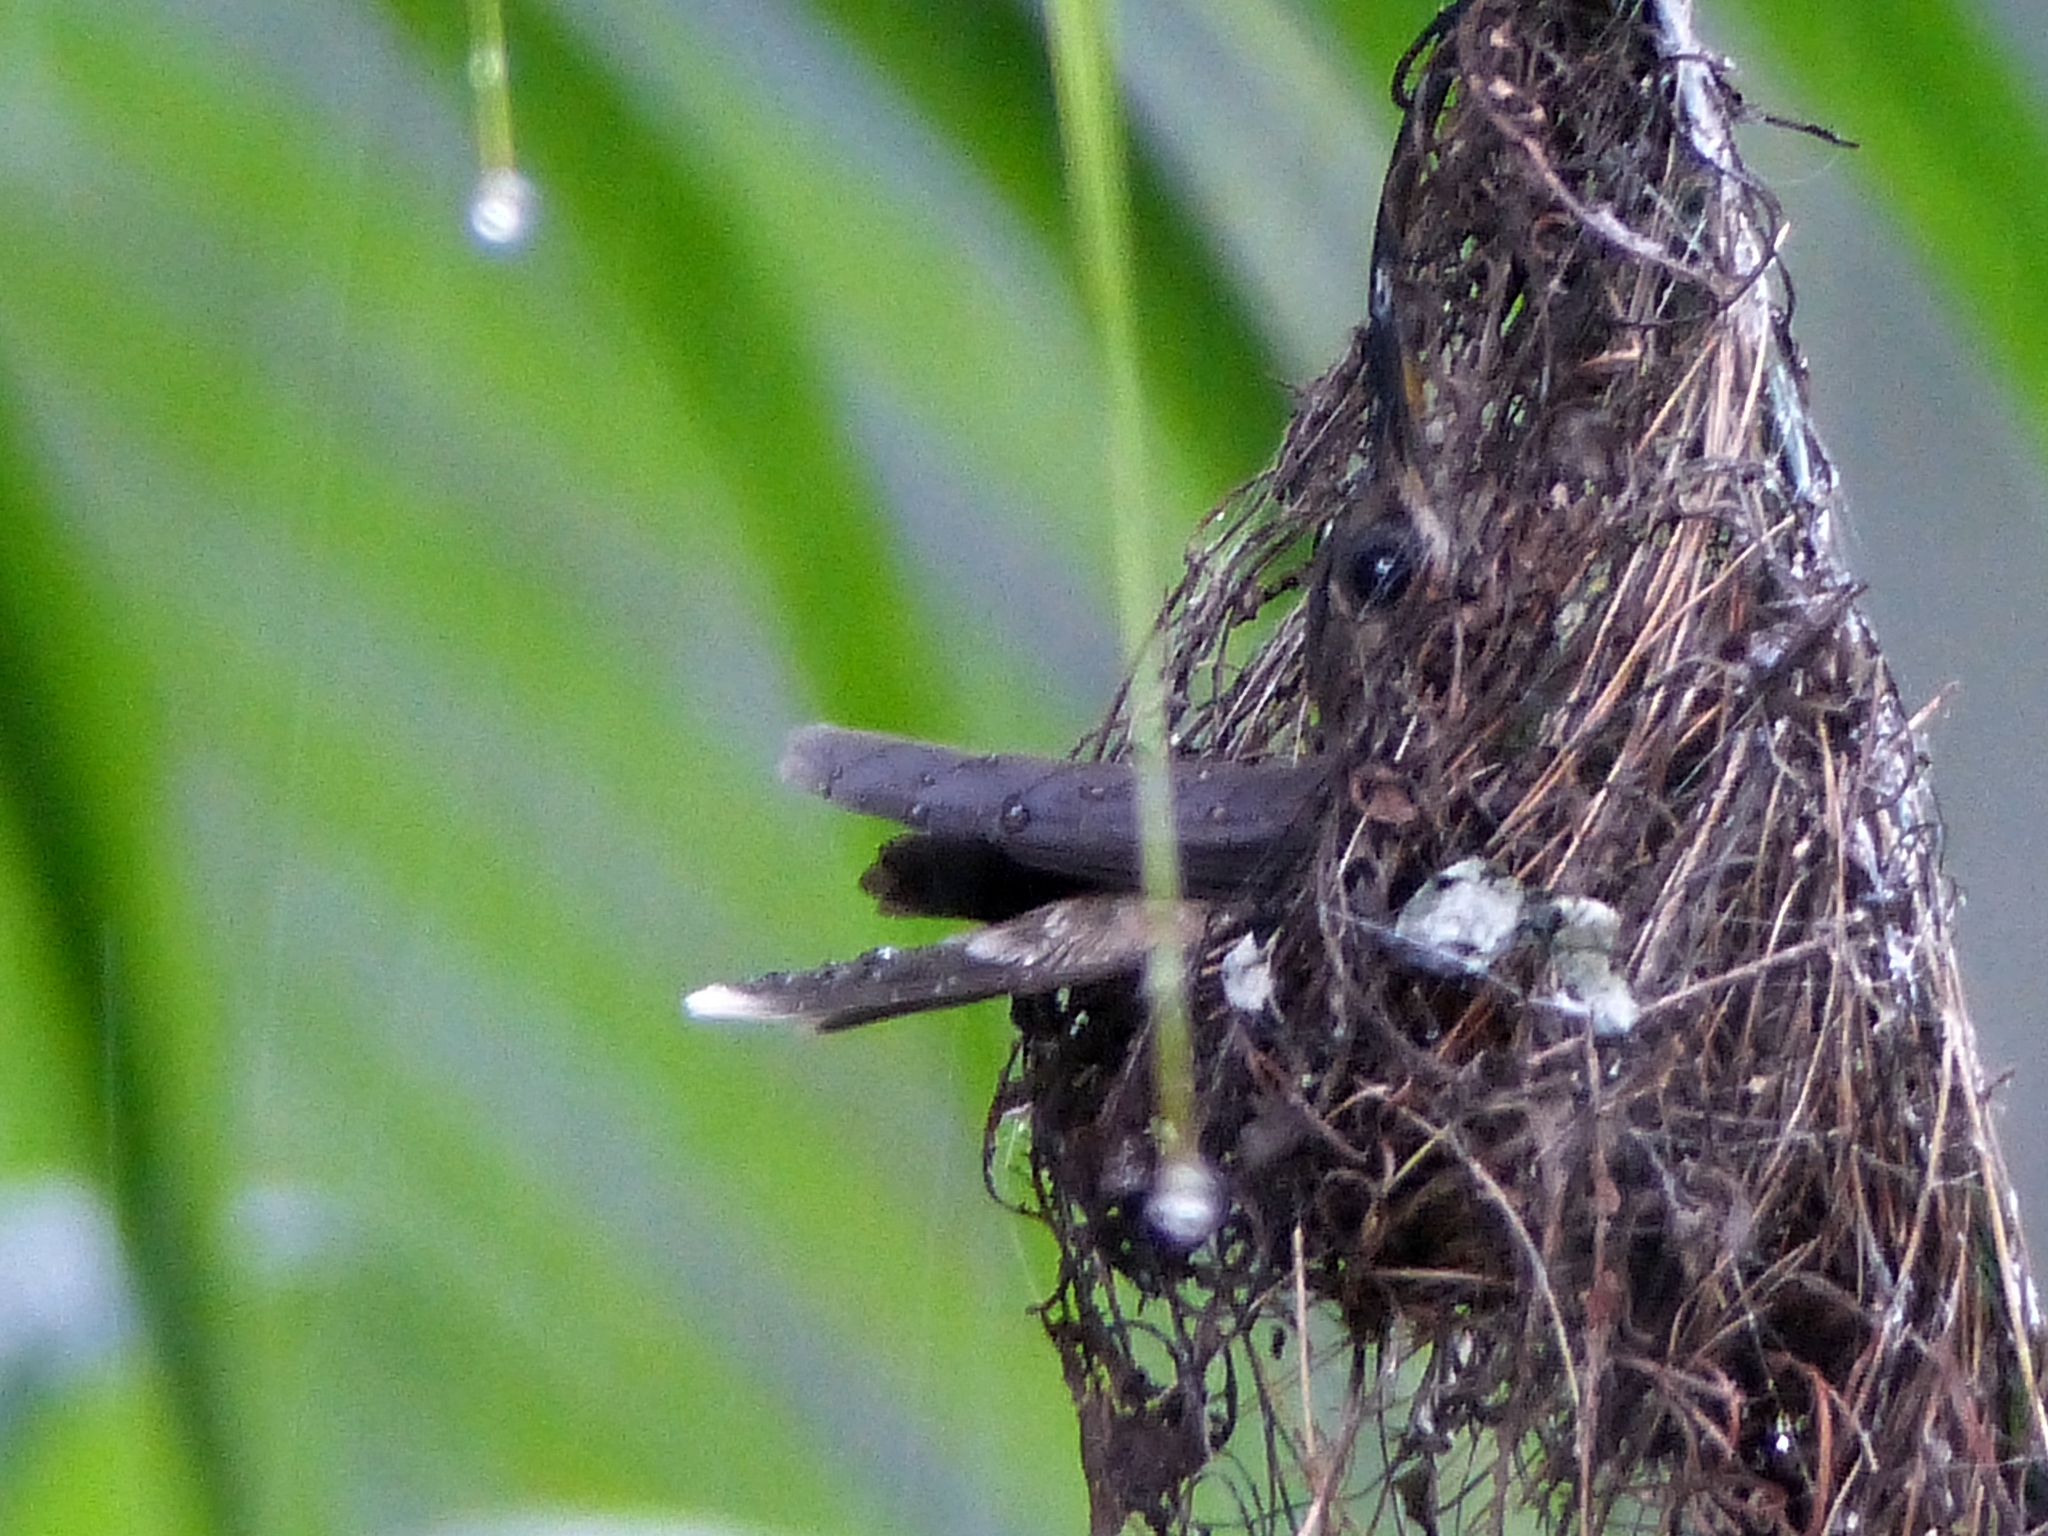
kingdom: Animalia
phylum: Chordata
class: Aves
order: Apodiformes
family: Trochilidae
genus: Glaucis
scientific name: Glaucis hirsutus
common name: Rufous-breasted hermit
